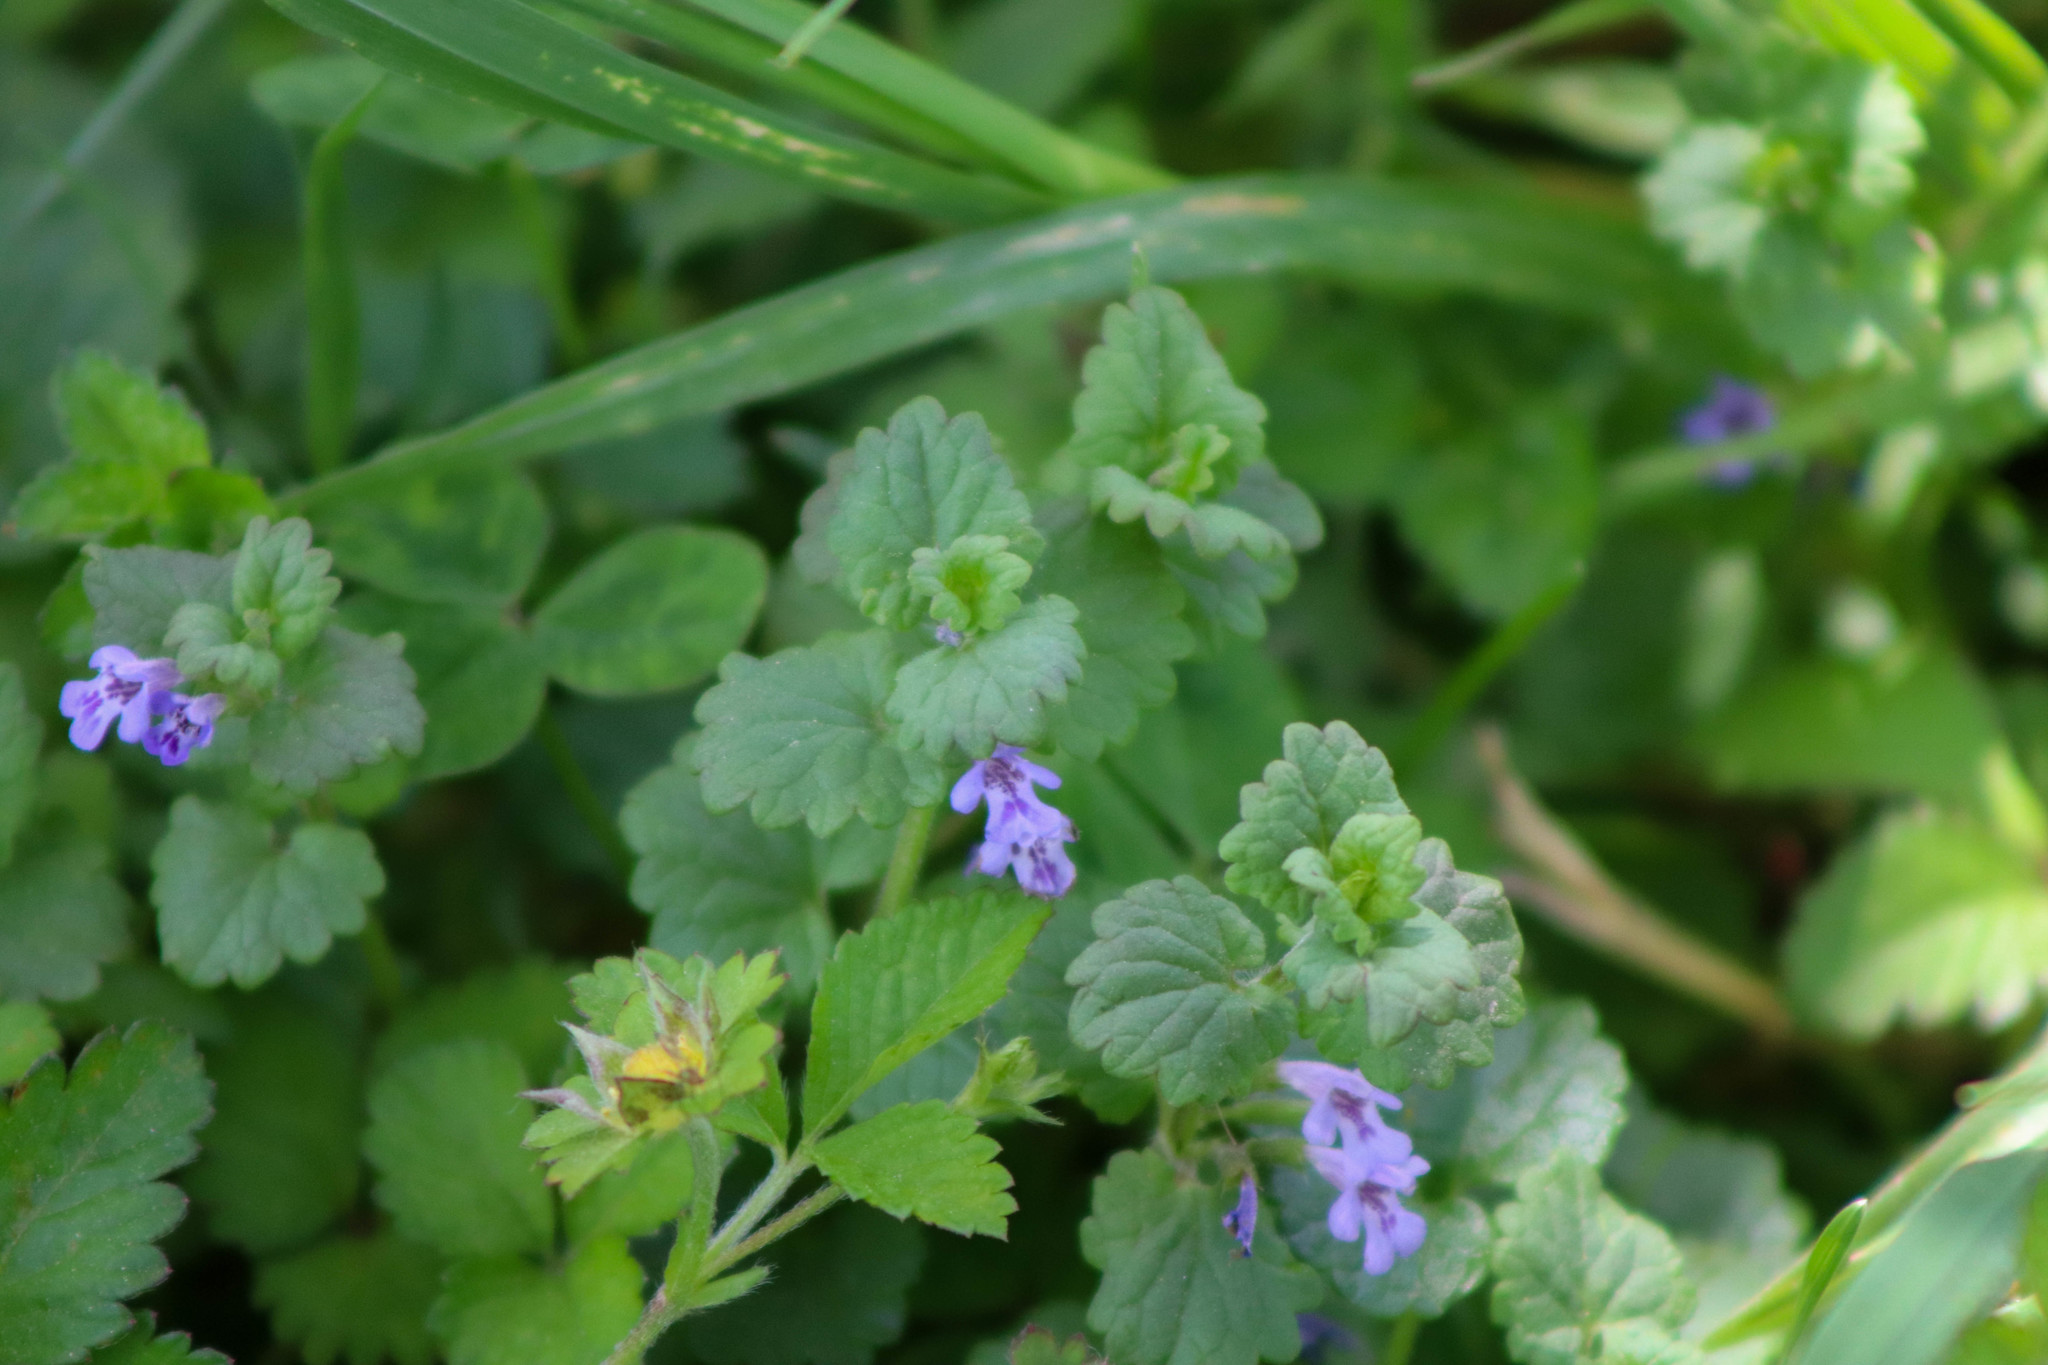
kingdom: Plantae
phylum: Tracheophyta
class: Magnoliopsida
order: Lamiales
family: Lamiaceae
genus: Glechoma
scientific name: Glechoma hederacea
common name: Ground ivy
